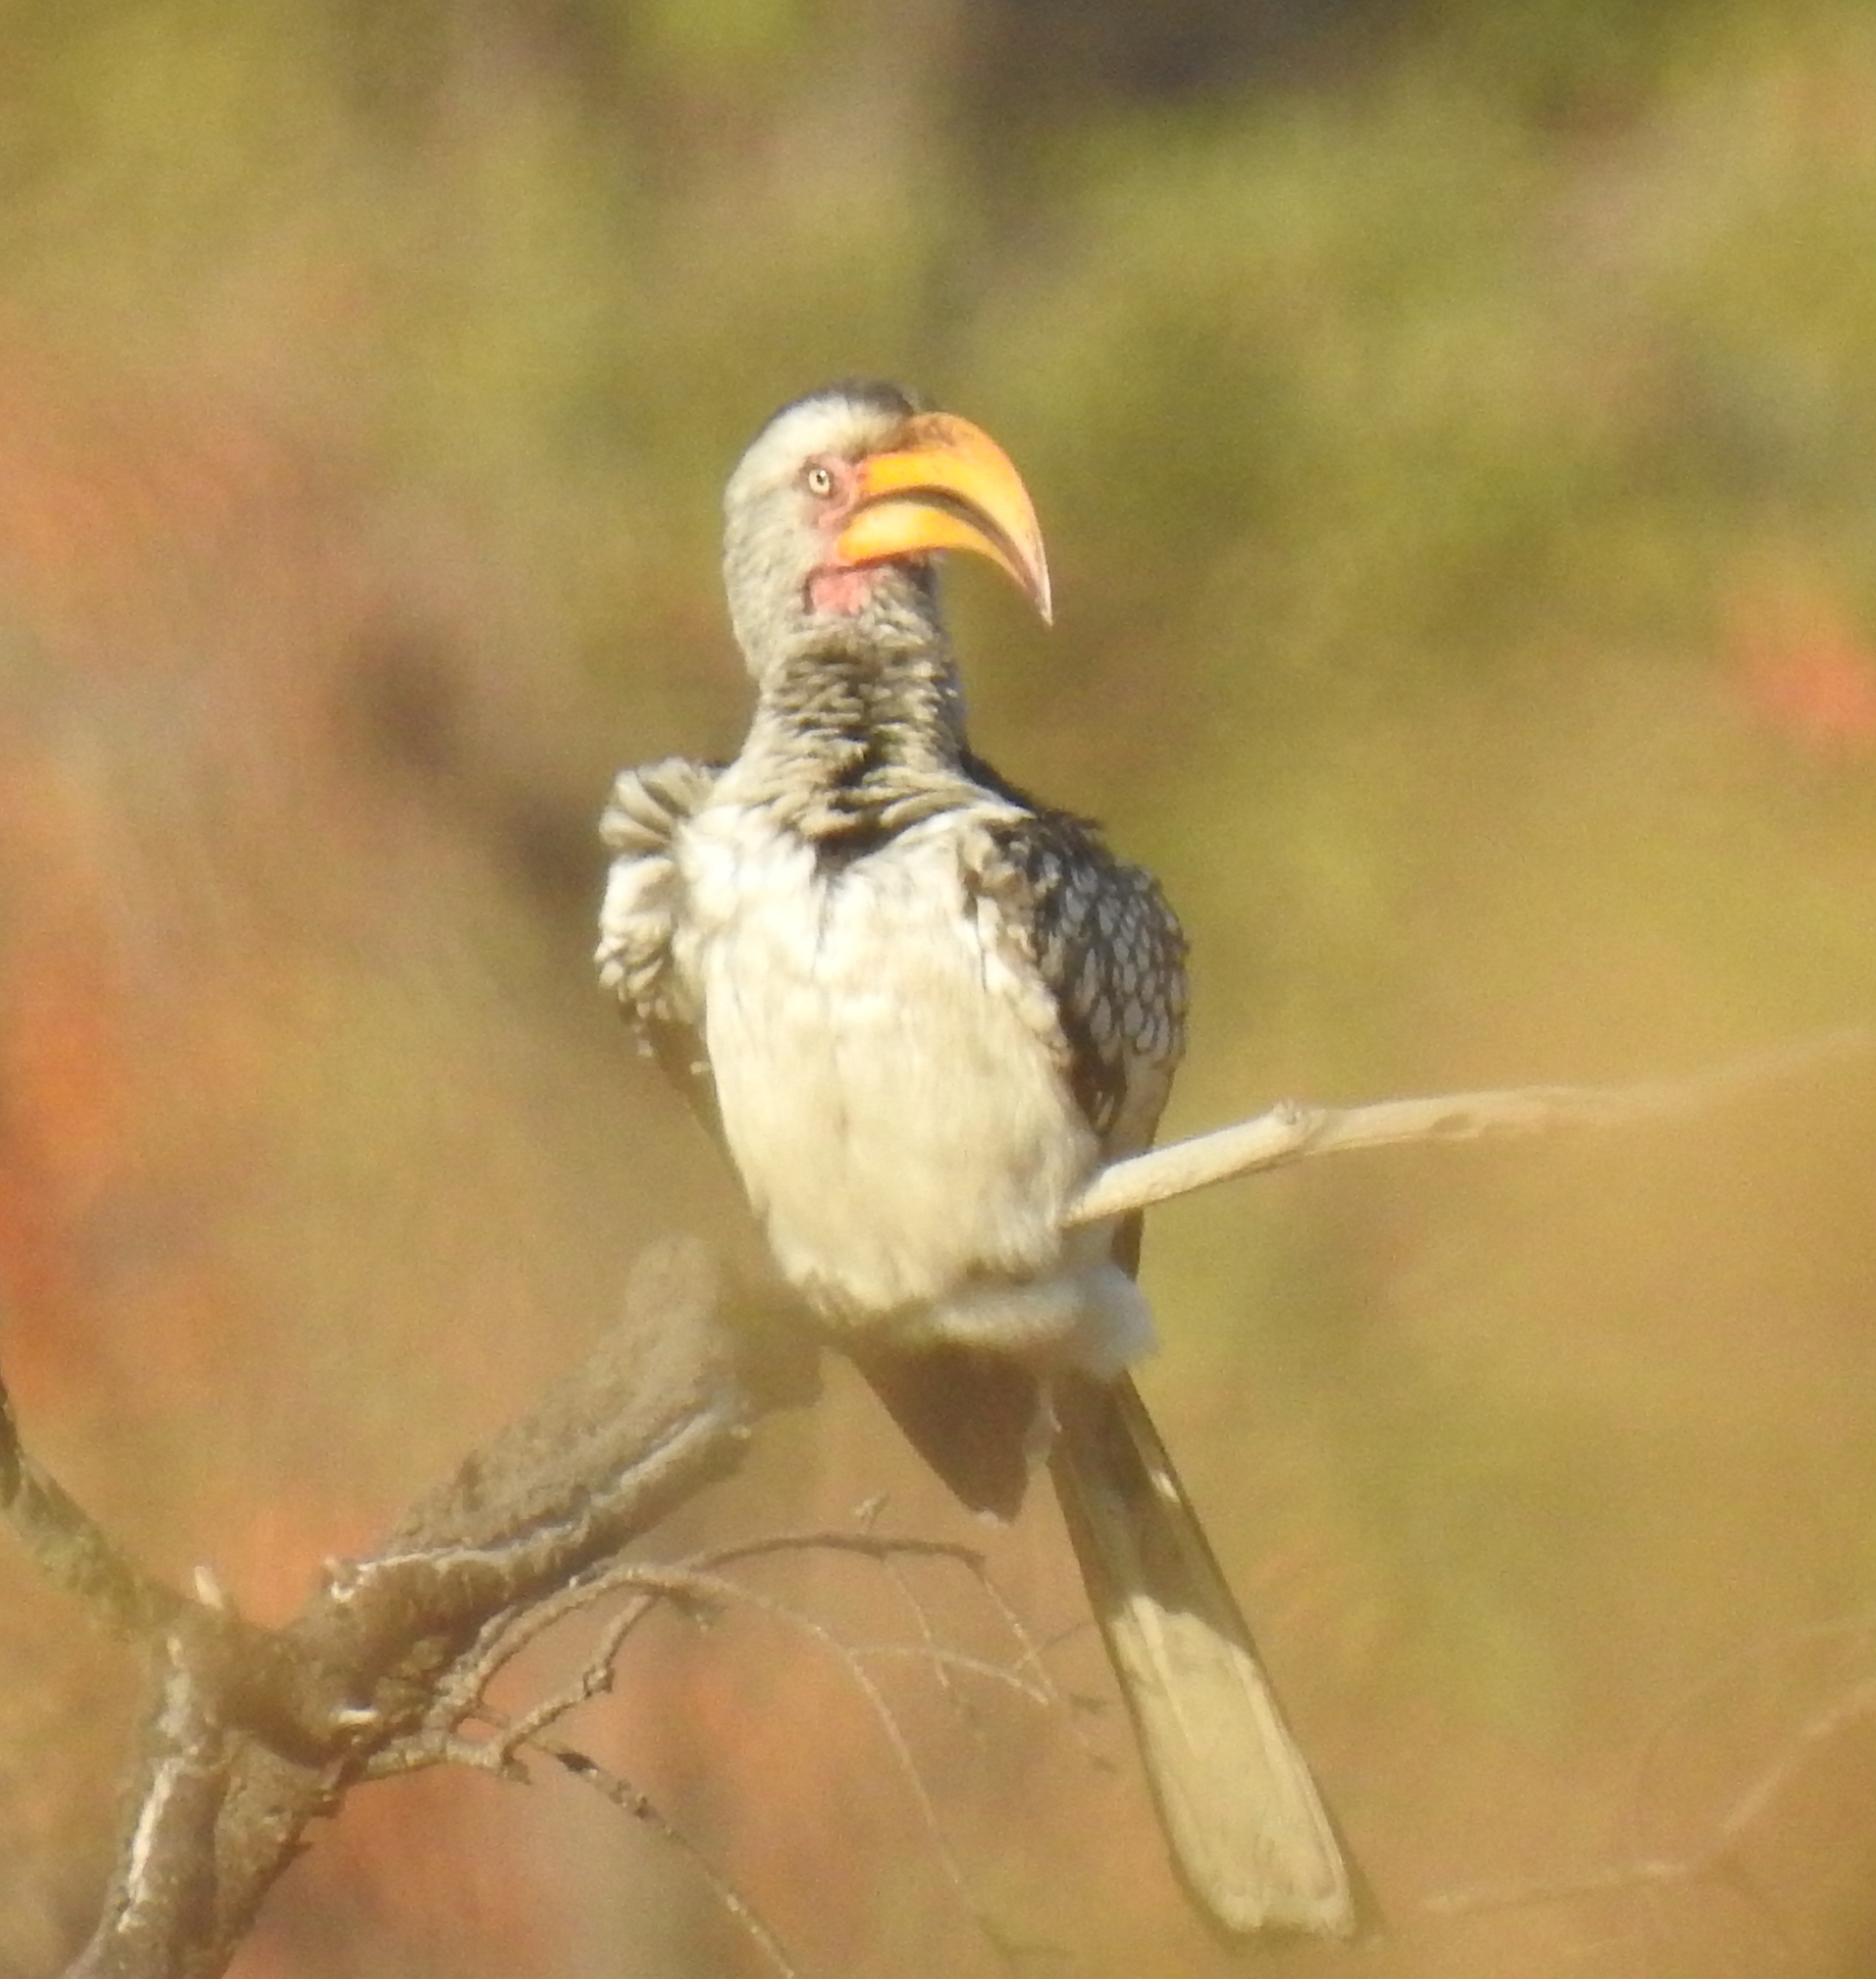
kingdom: Animalia
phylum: Chordata
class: Aves
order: Bucerotiformes
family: Bucerotidae
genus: Tockus
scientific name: Tockus leucomelas
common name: Southern yellow-billed hornbill
